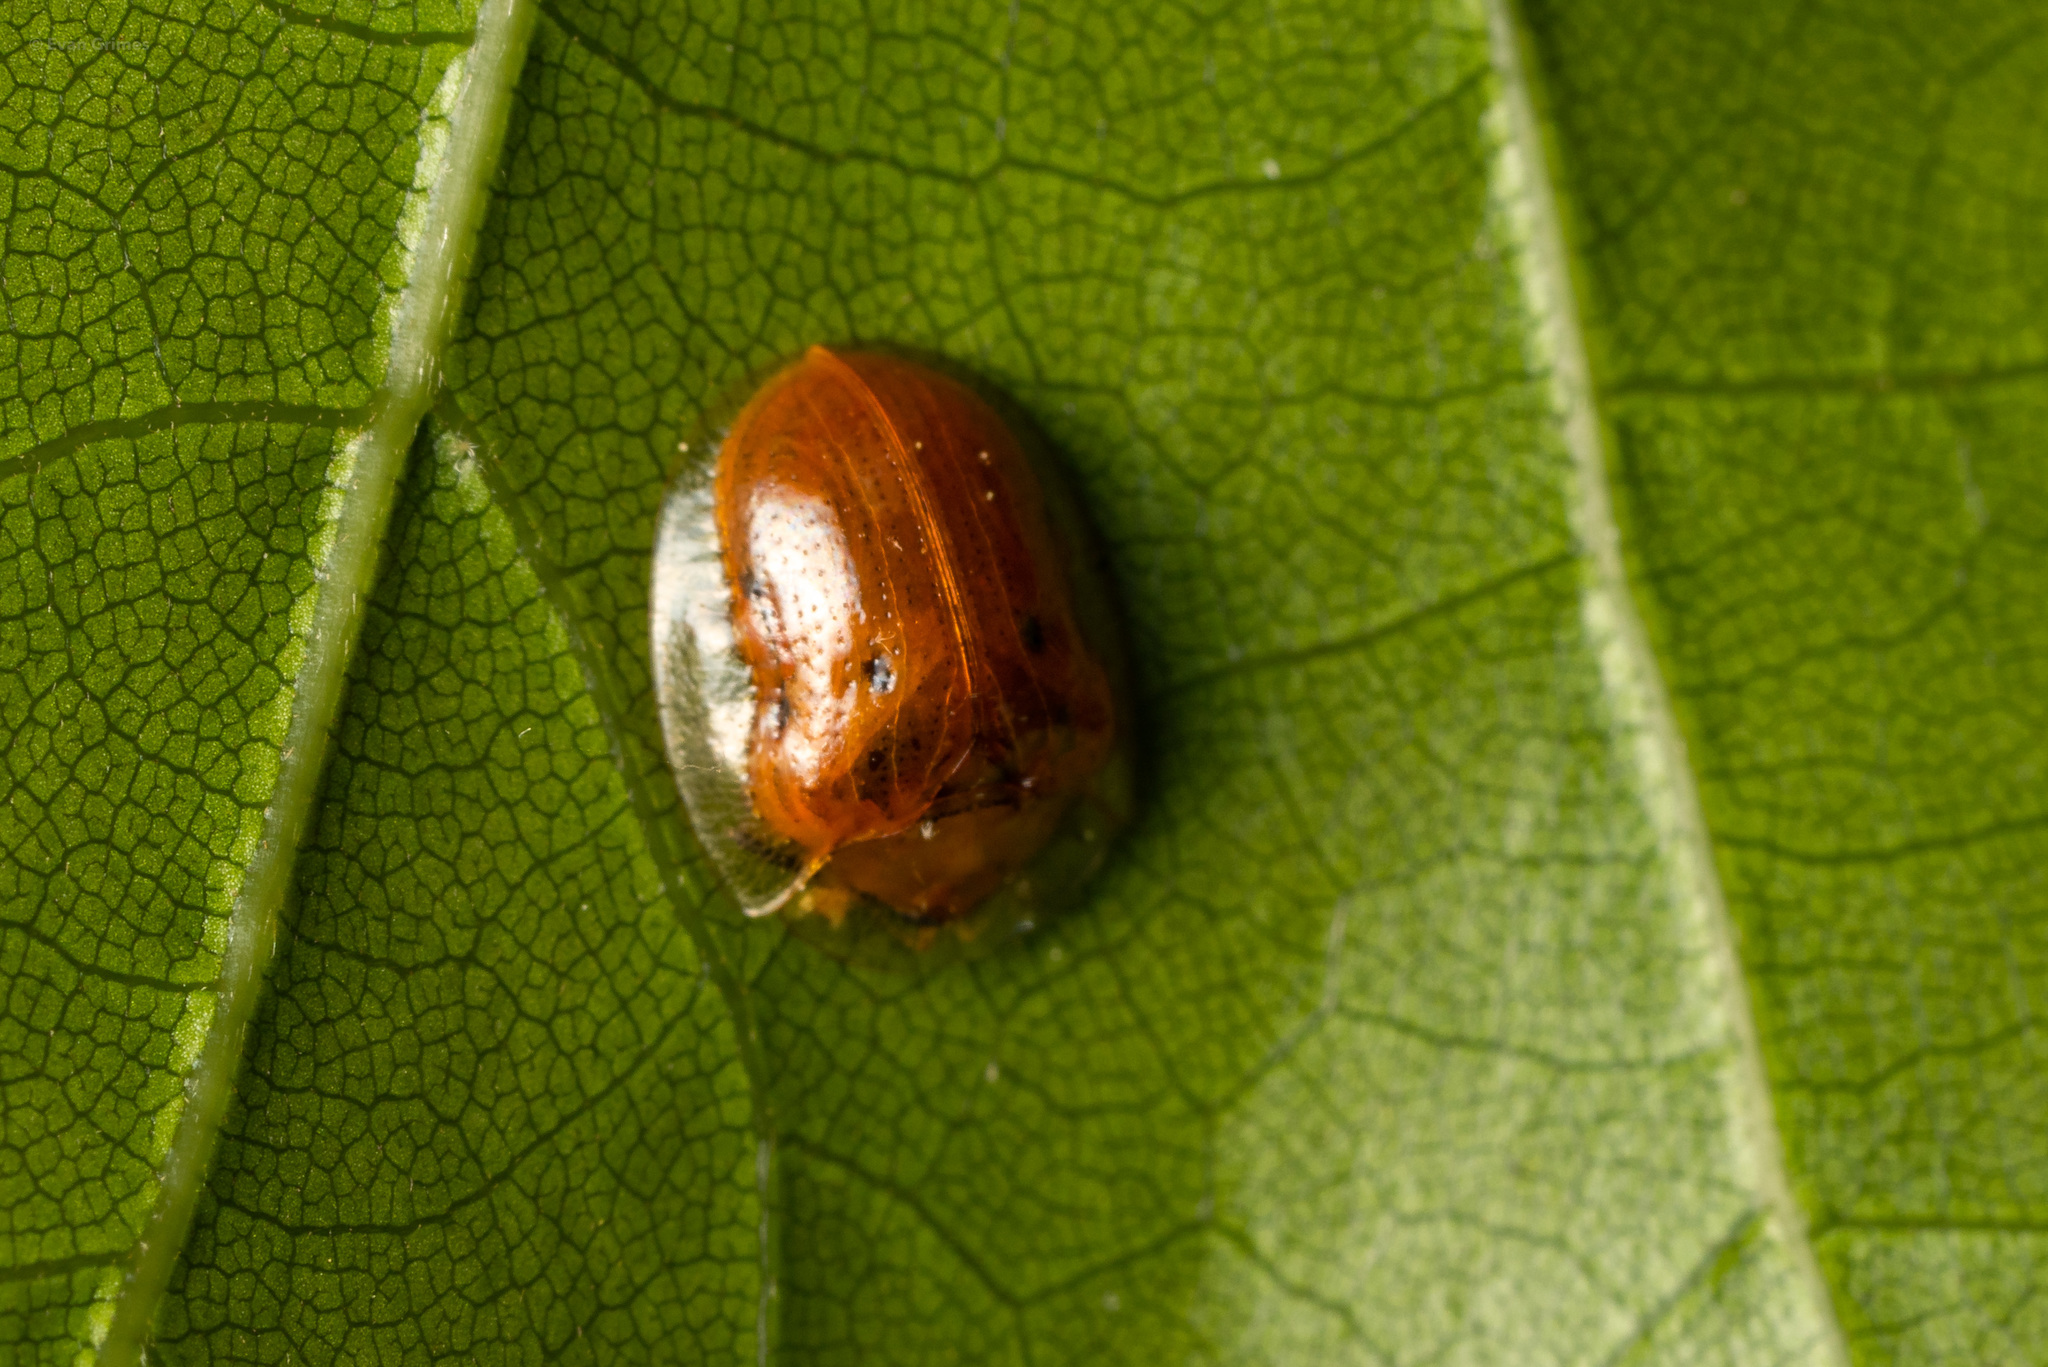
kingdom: Animalia
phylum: Arthropoda
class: Insecta
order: Coleoptera
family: Chrysomelidae
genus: Charidotella
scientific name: Charidotella sexpunctata
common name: Golden tortoise beetle
